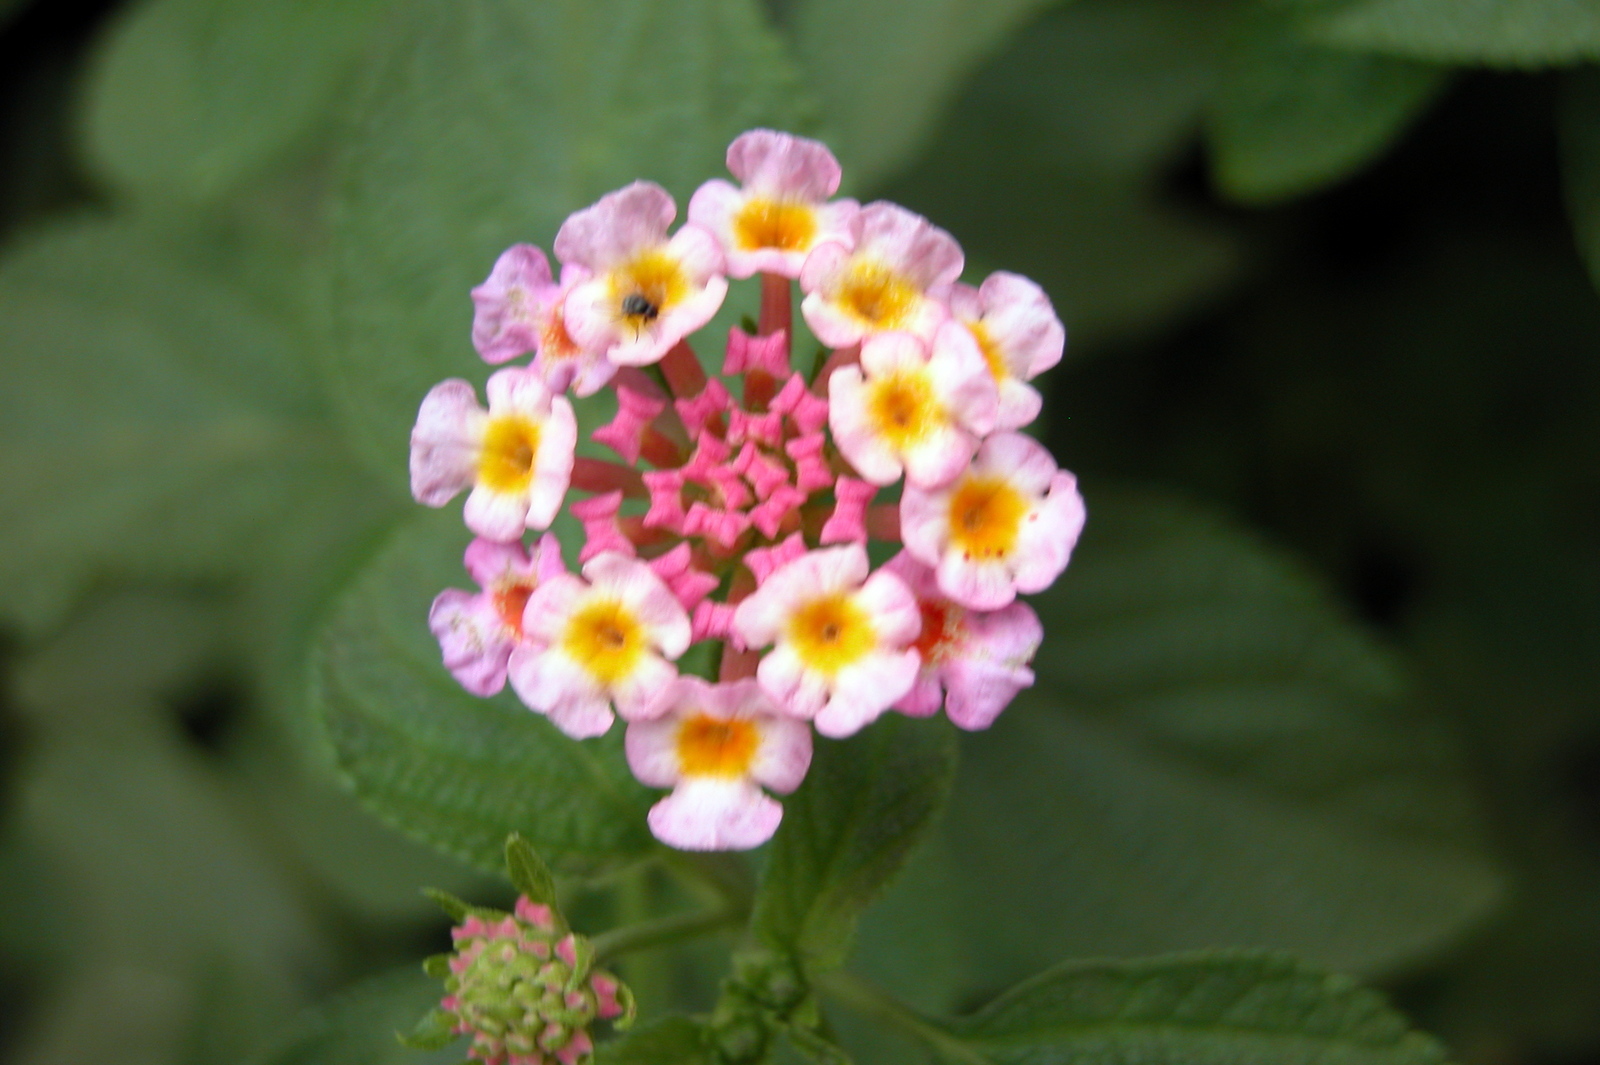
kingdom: Plantae
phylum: Tracheophyta
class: Magnoliopsida
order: Lamiales
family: Verbenaceae
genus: Lantana
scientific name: Lantana camara
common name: Lantana
